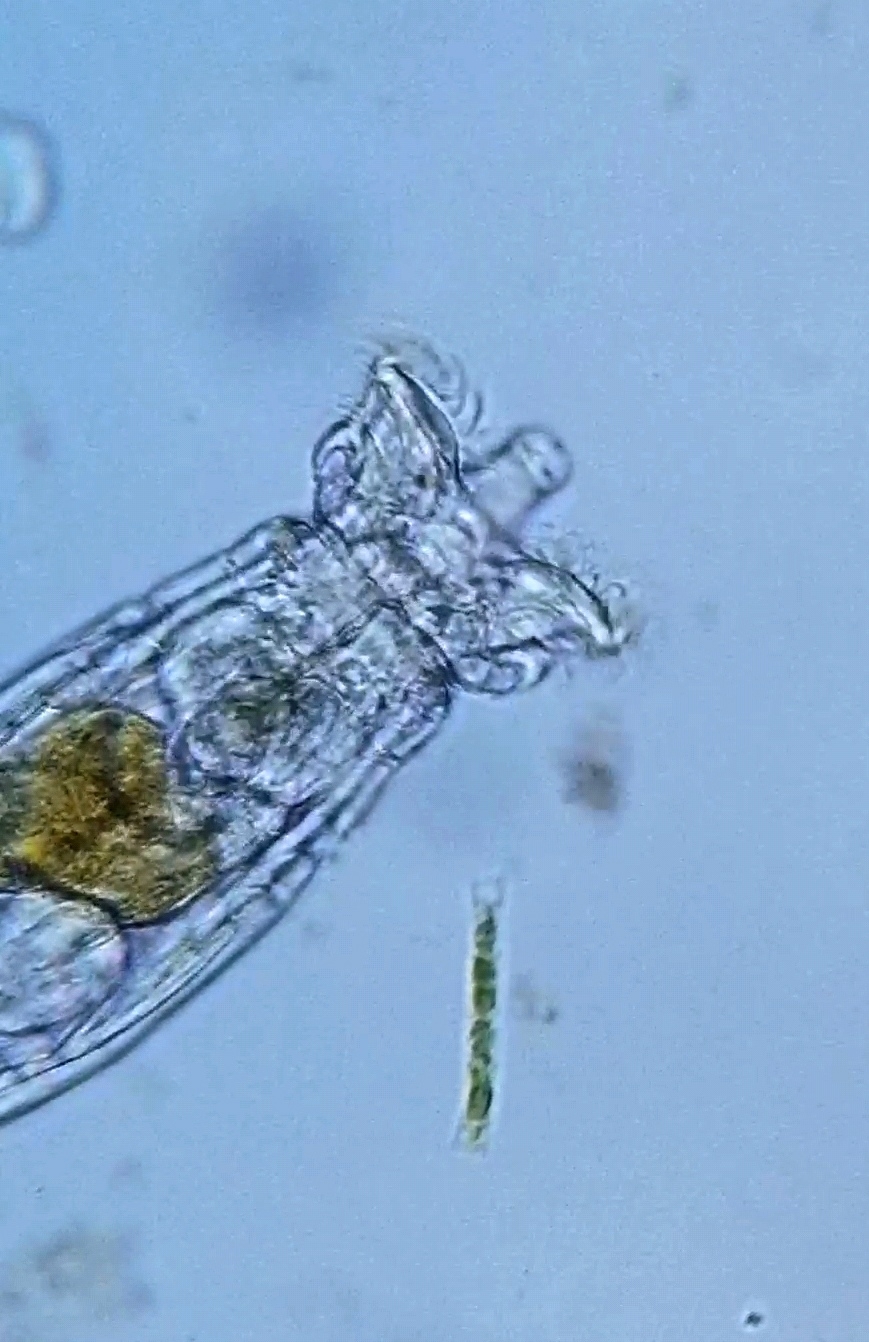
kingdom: Animalia
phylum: Rotifera
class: Eurotatoria
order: Bdelloidea
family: Philodinidae
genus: Rotaria
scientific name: Rotaria macrura
